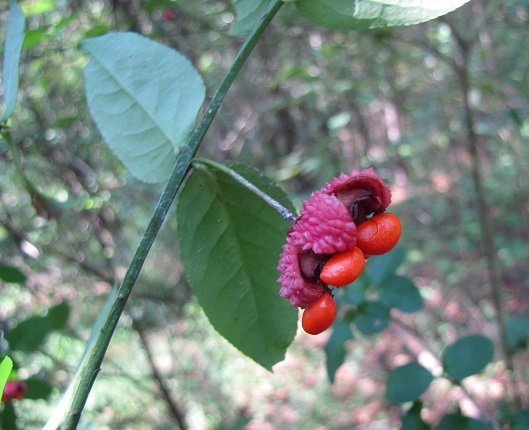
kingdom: Plantae
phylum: Tracheophyta
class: Magnoliopsida
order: Celastrales
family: Celastraceae
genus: Euonymus
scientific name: Euonymus americanus
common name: Bursting-heart
